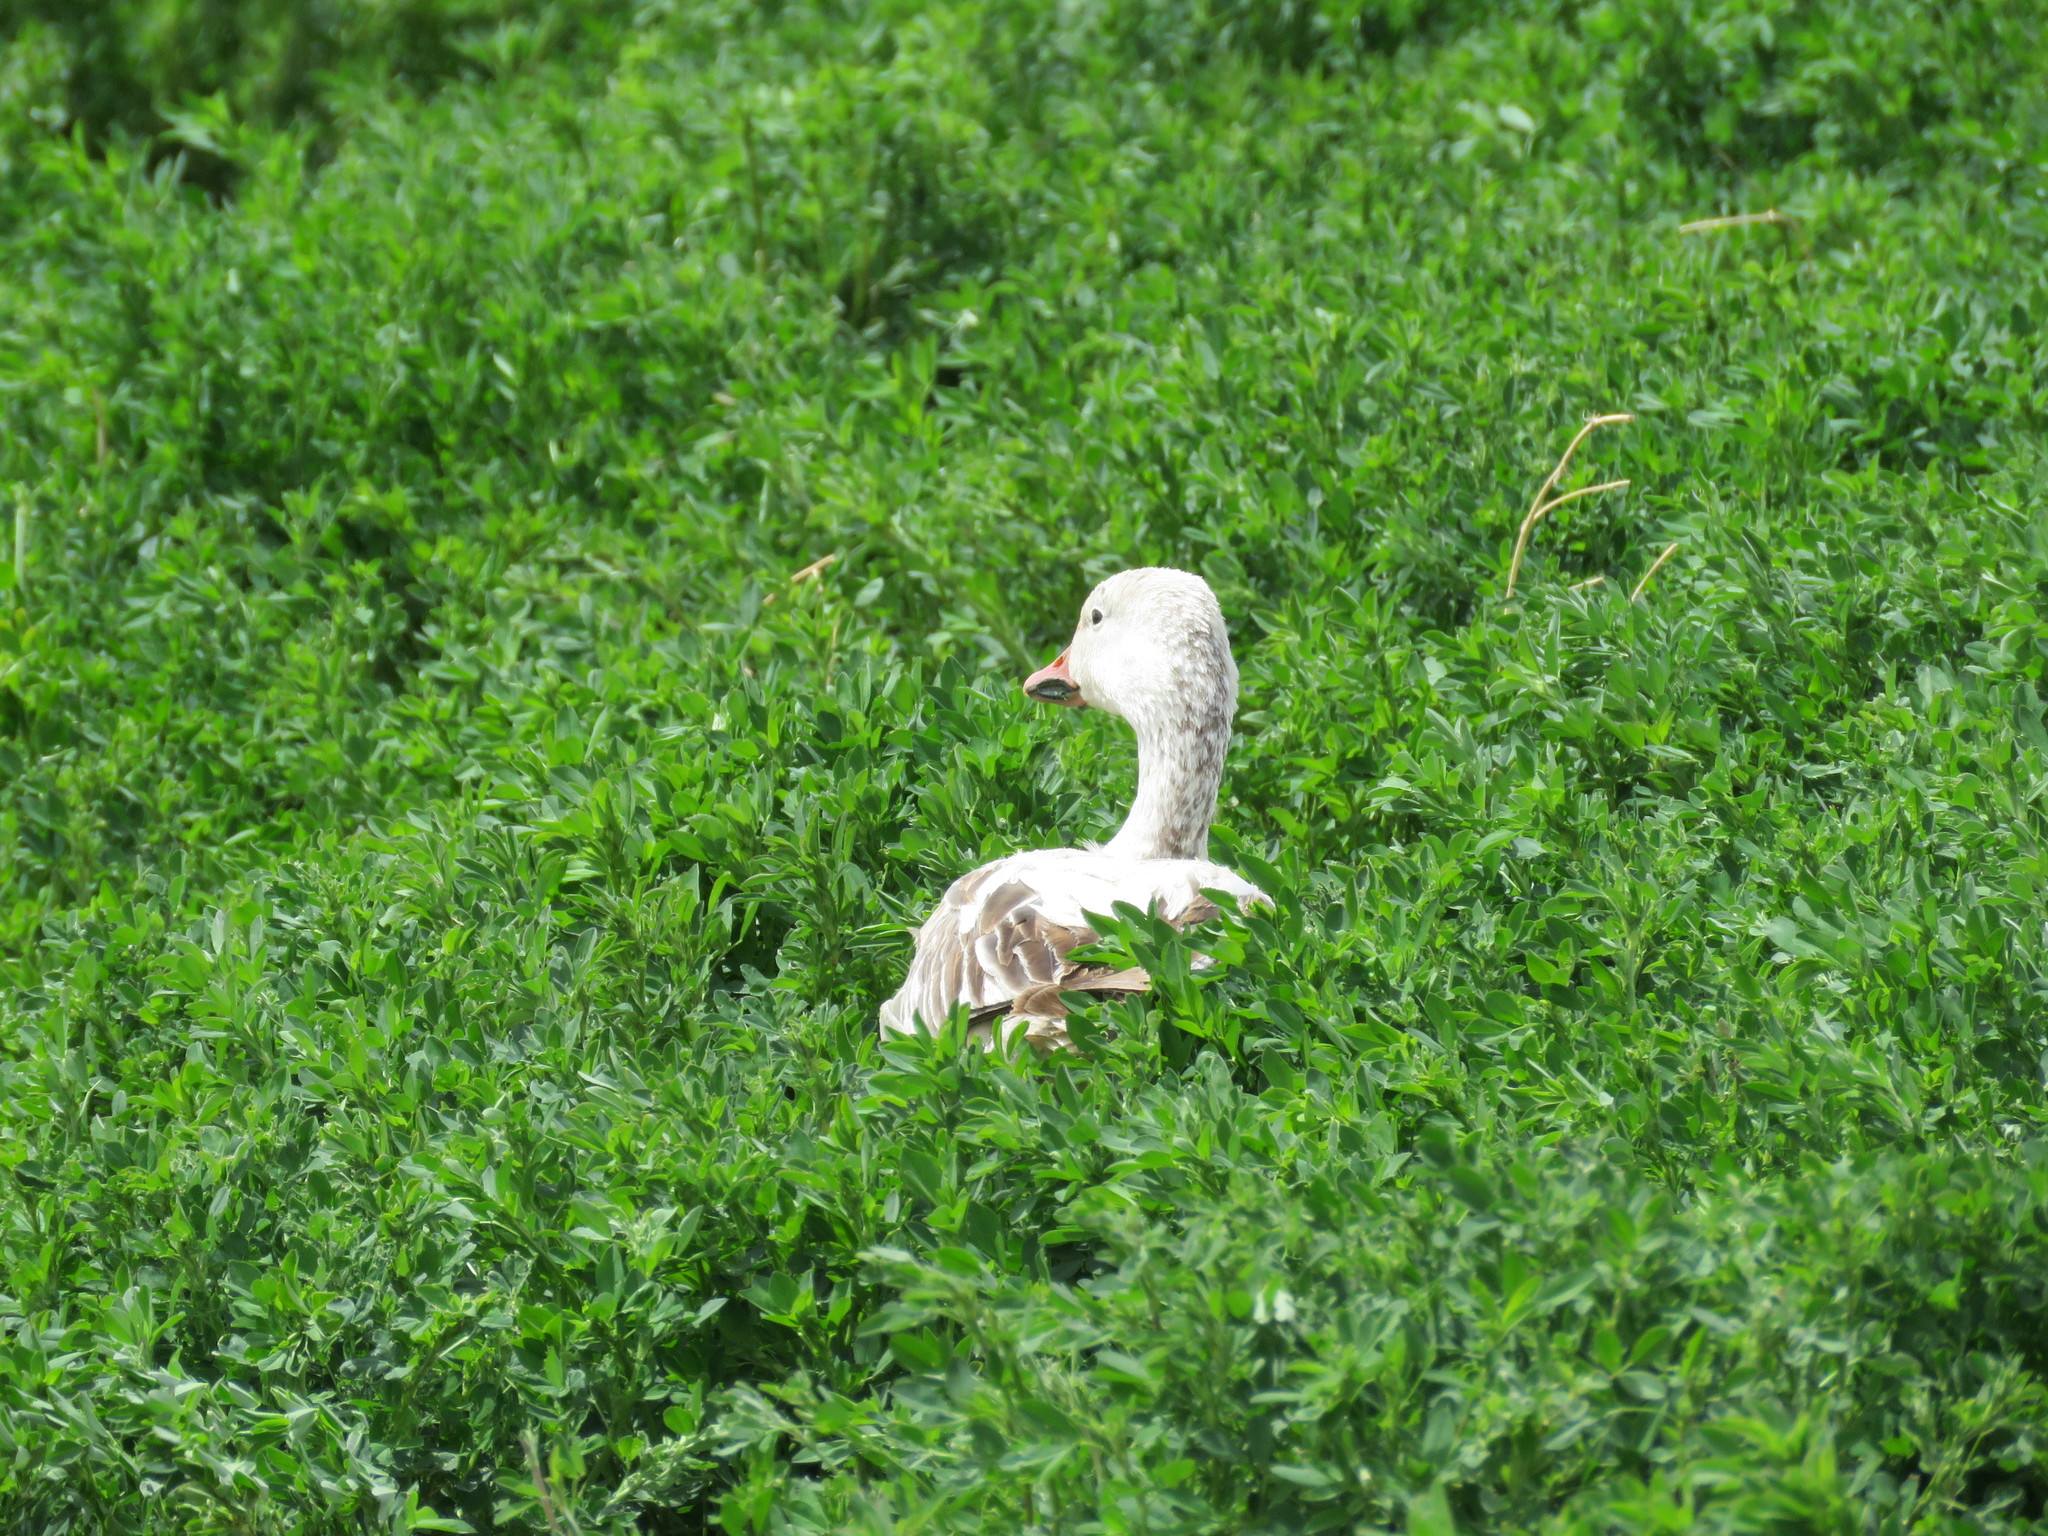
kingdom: Animalia
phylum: Chordata
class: Aves
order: Anseriformes
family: Anatidae
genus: Anser
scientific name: Anser caerulescens
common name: Snow goose
